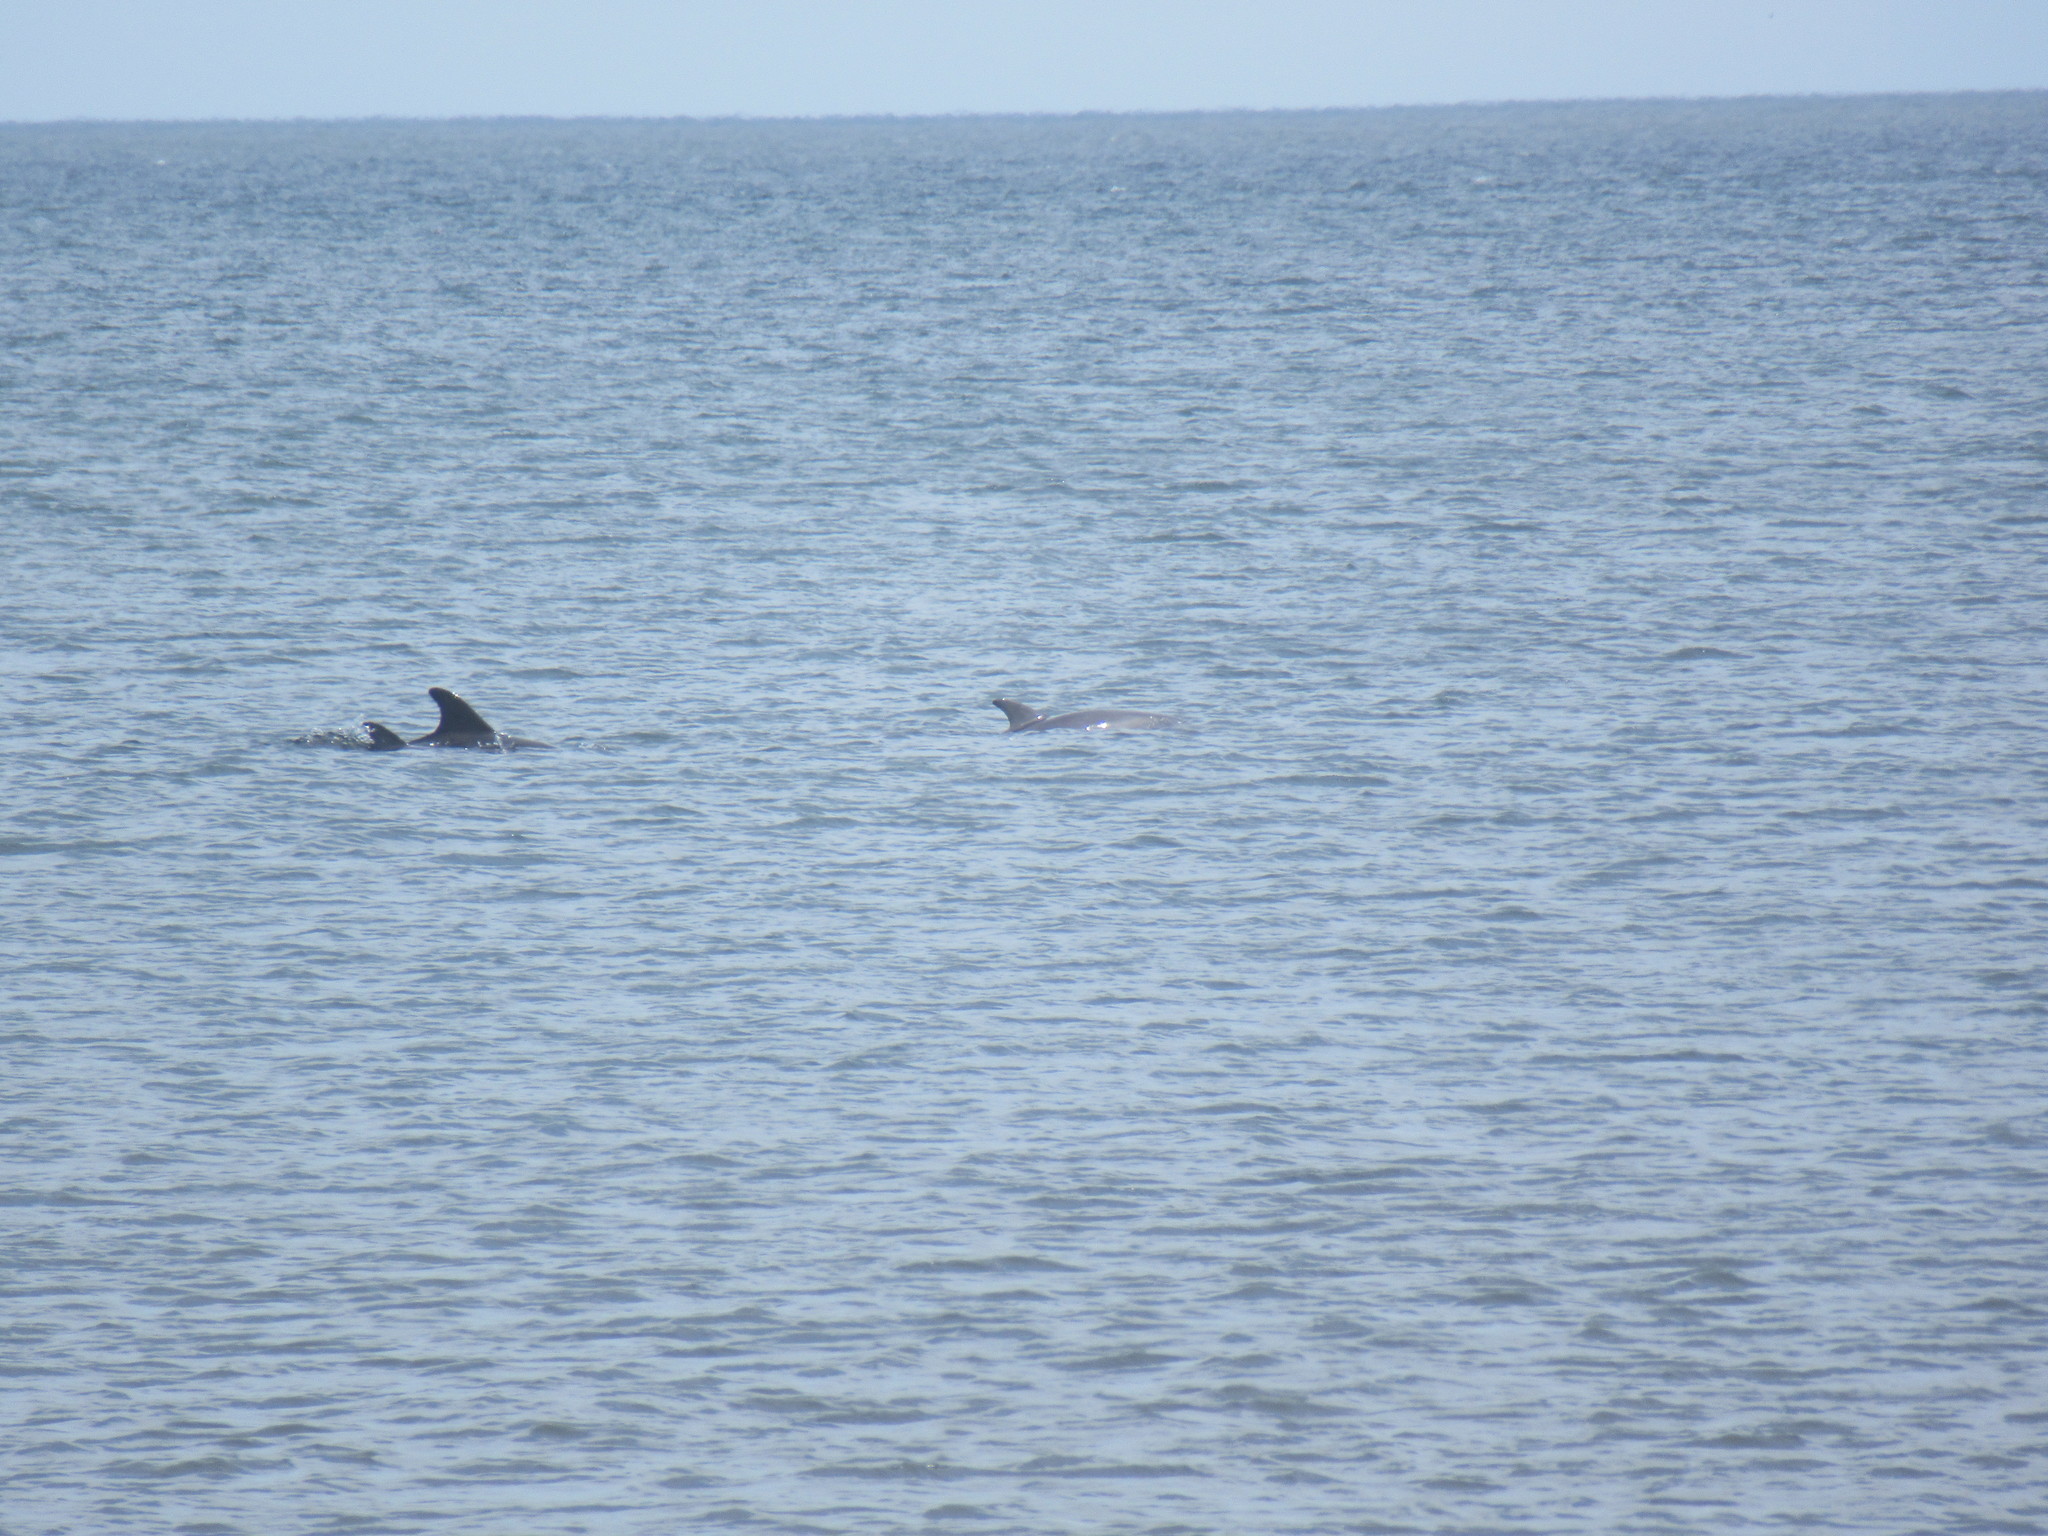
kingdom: Animalia
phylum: Chordata
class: Mammalia
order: Cetacea
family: Delphinidae
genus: Tursiops
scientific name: Tursiops truncatus
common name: Bottlenose dolphin
